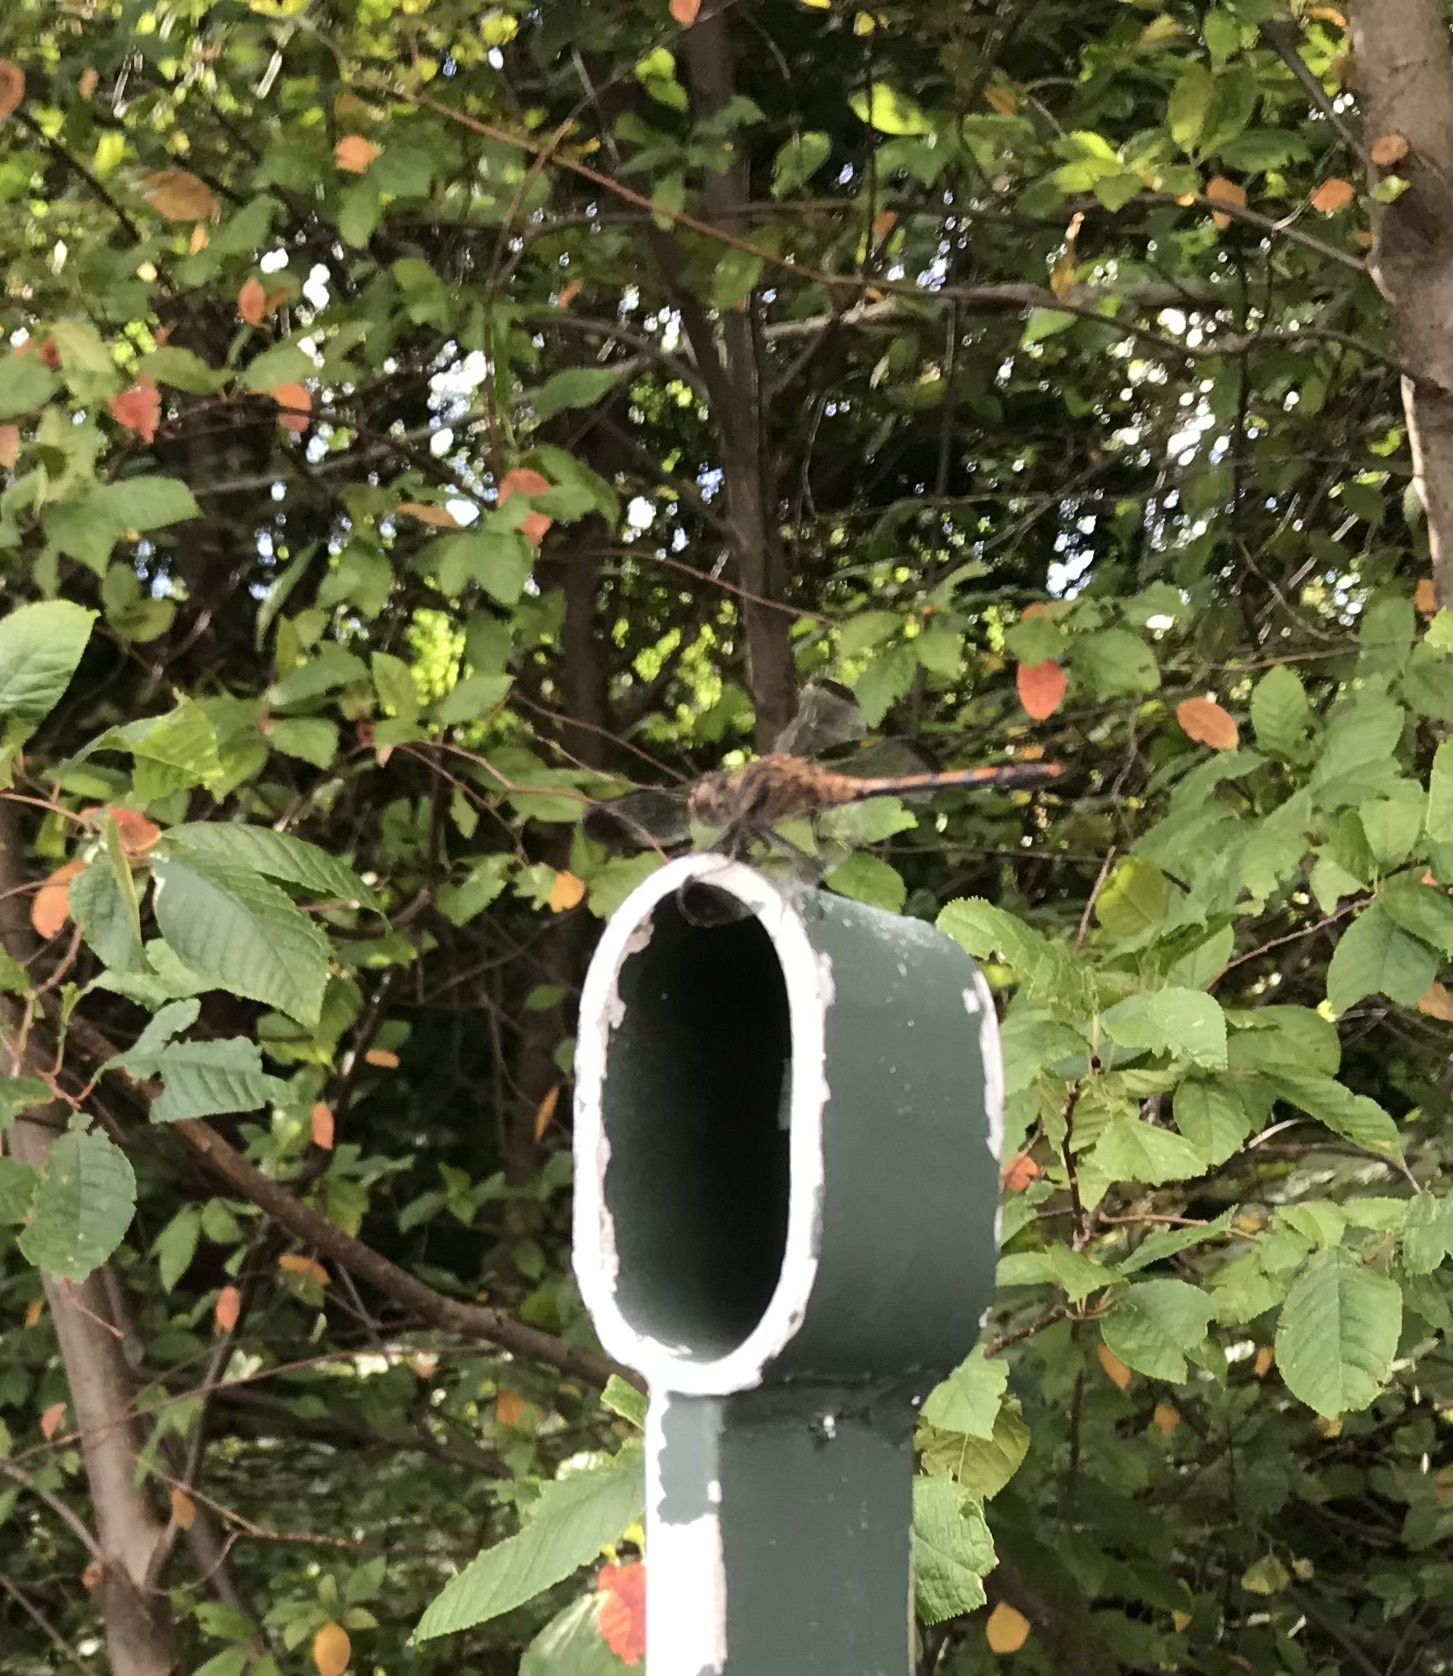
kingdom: Animalia
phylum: Arthropoda
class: Insecta
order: Odonata
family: Libellulidae
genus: Sympetrum
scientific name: Sympetrum infuscatum
